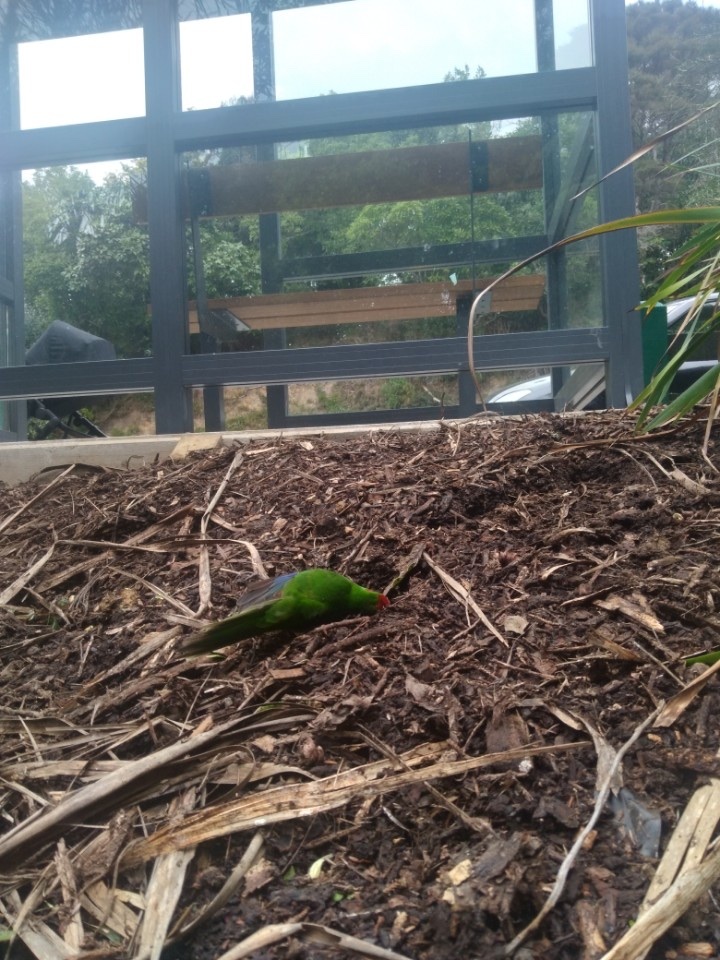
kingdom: Animalia
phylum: Chordata
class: Aves
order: Psittaciformes
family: Psittacidae
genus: Cyanoramphus
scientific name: Cyanoramphus novaezelandiae
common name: Red-fronted parakeet
